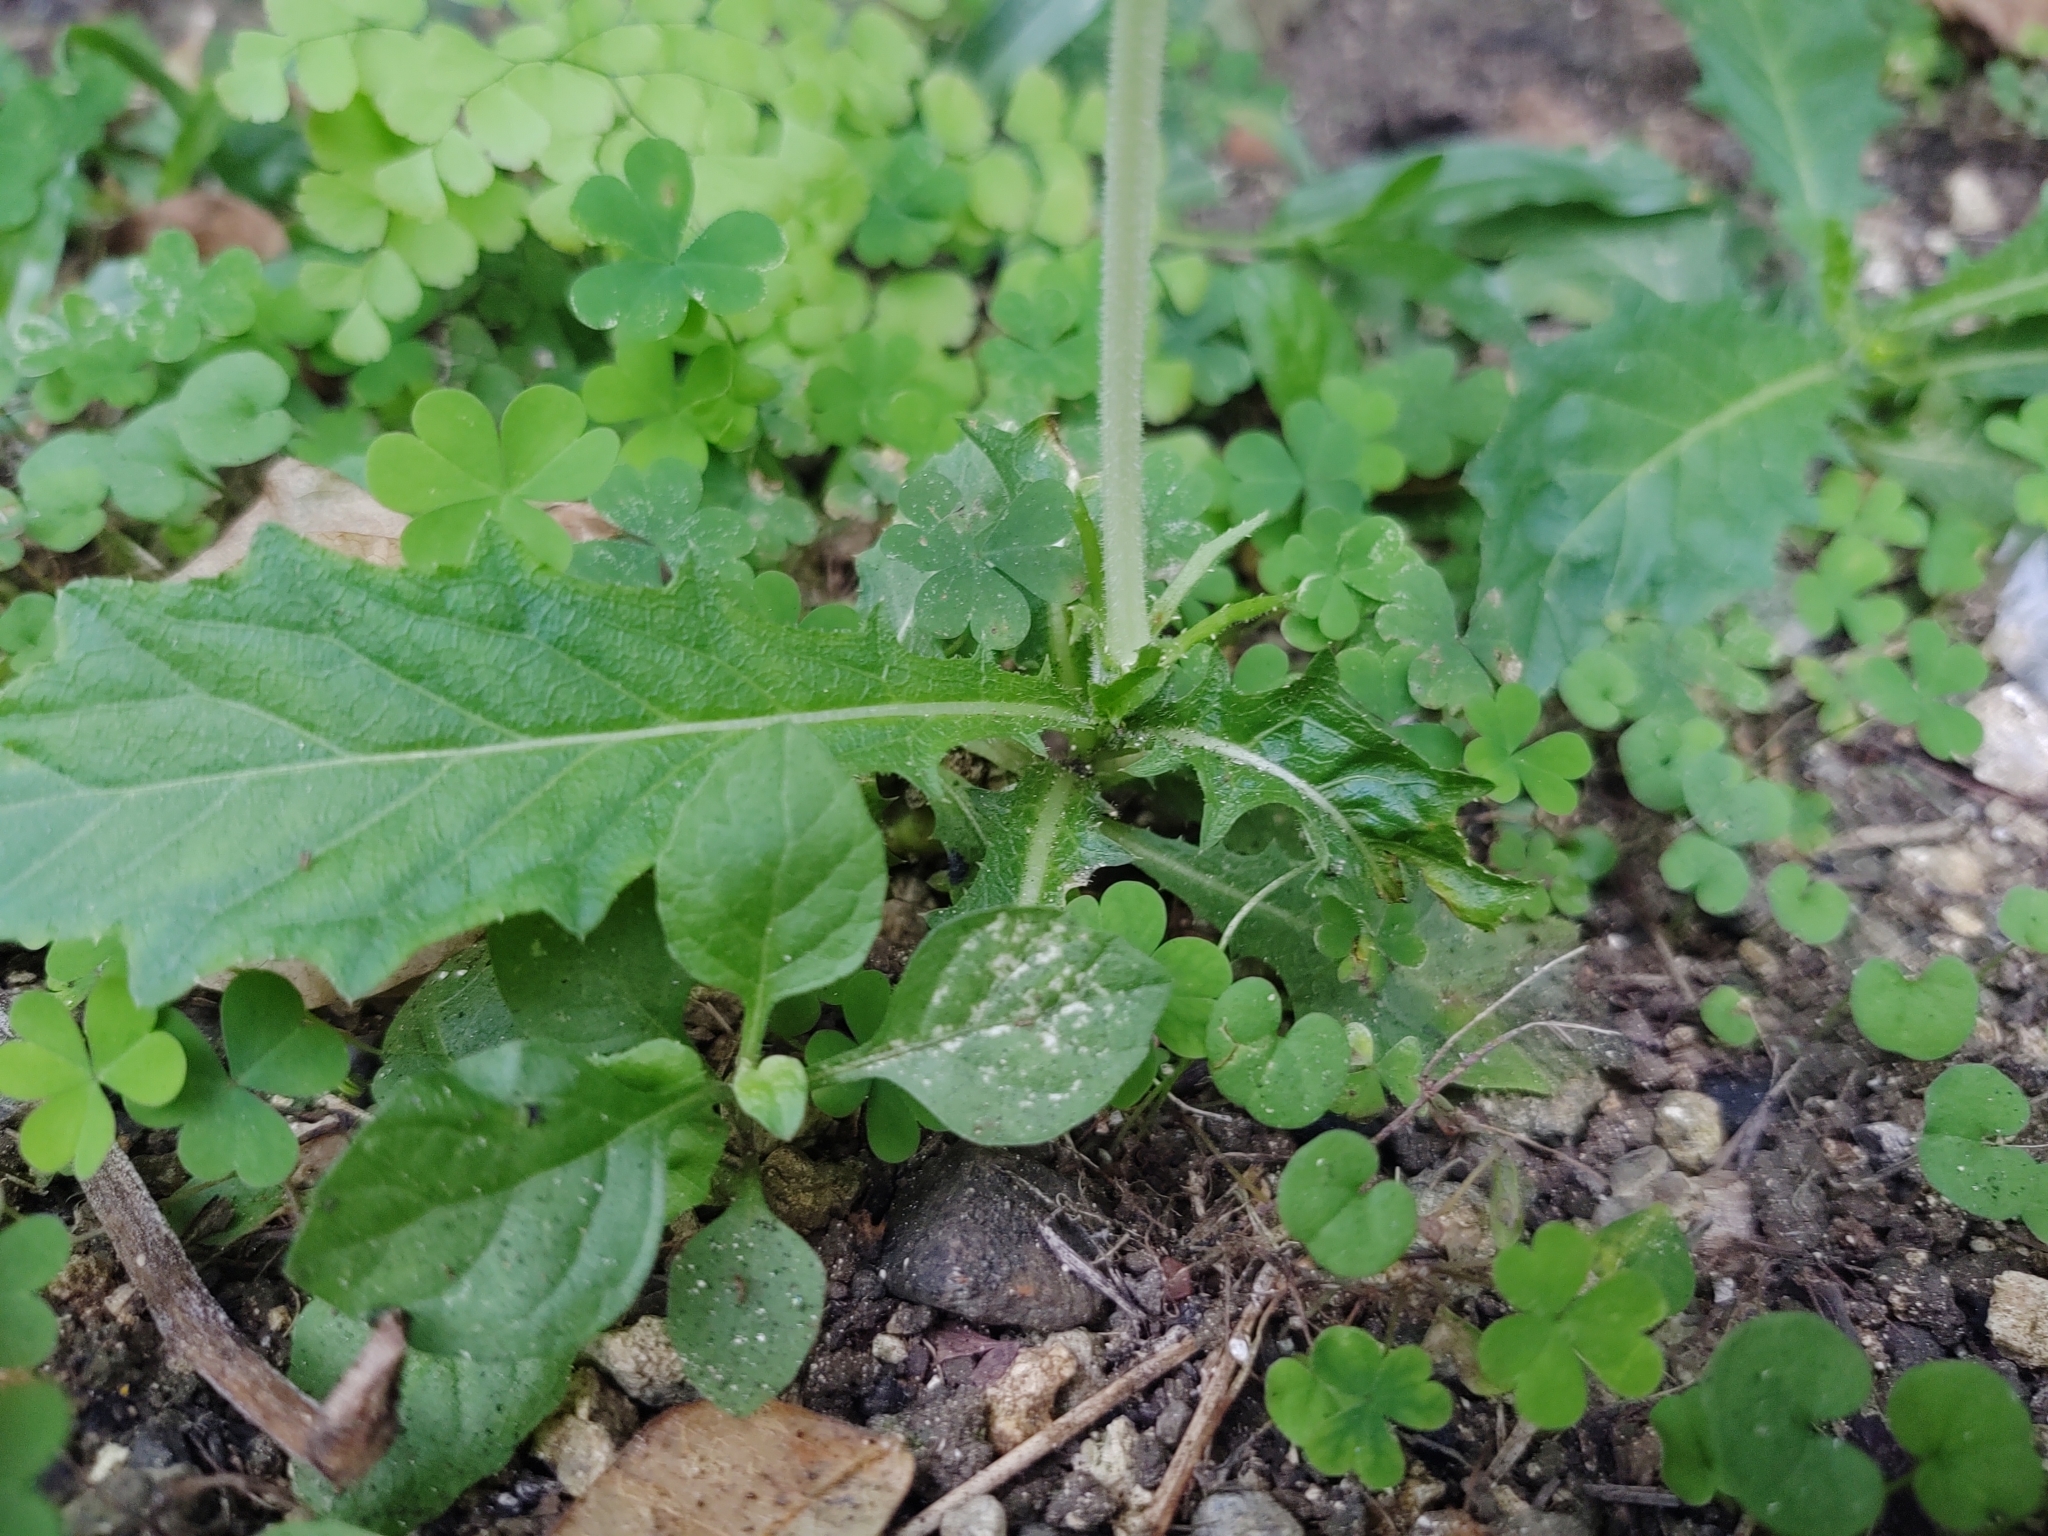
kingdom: Plantae
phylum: Tracheophyta
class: Magnoliopsida
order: Asterales
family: Campanulaceae
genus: Hippobroma
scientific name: Hippobroma longiflora
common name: Madamfate
